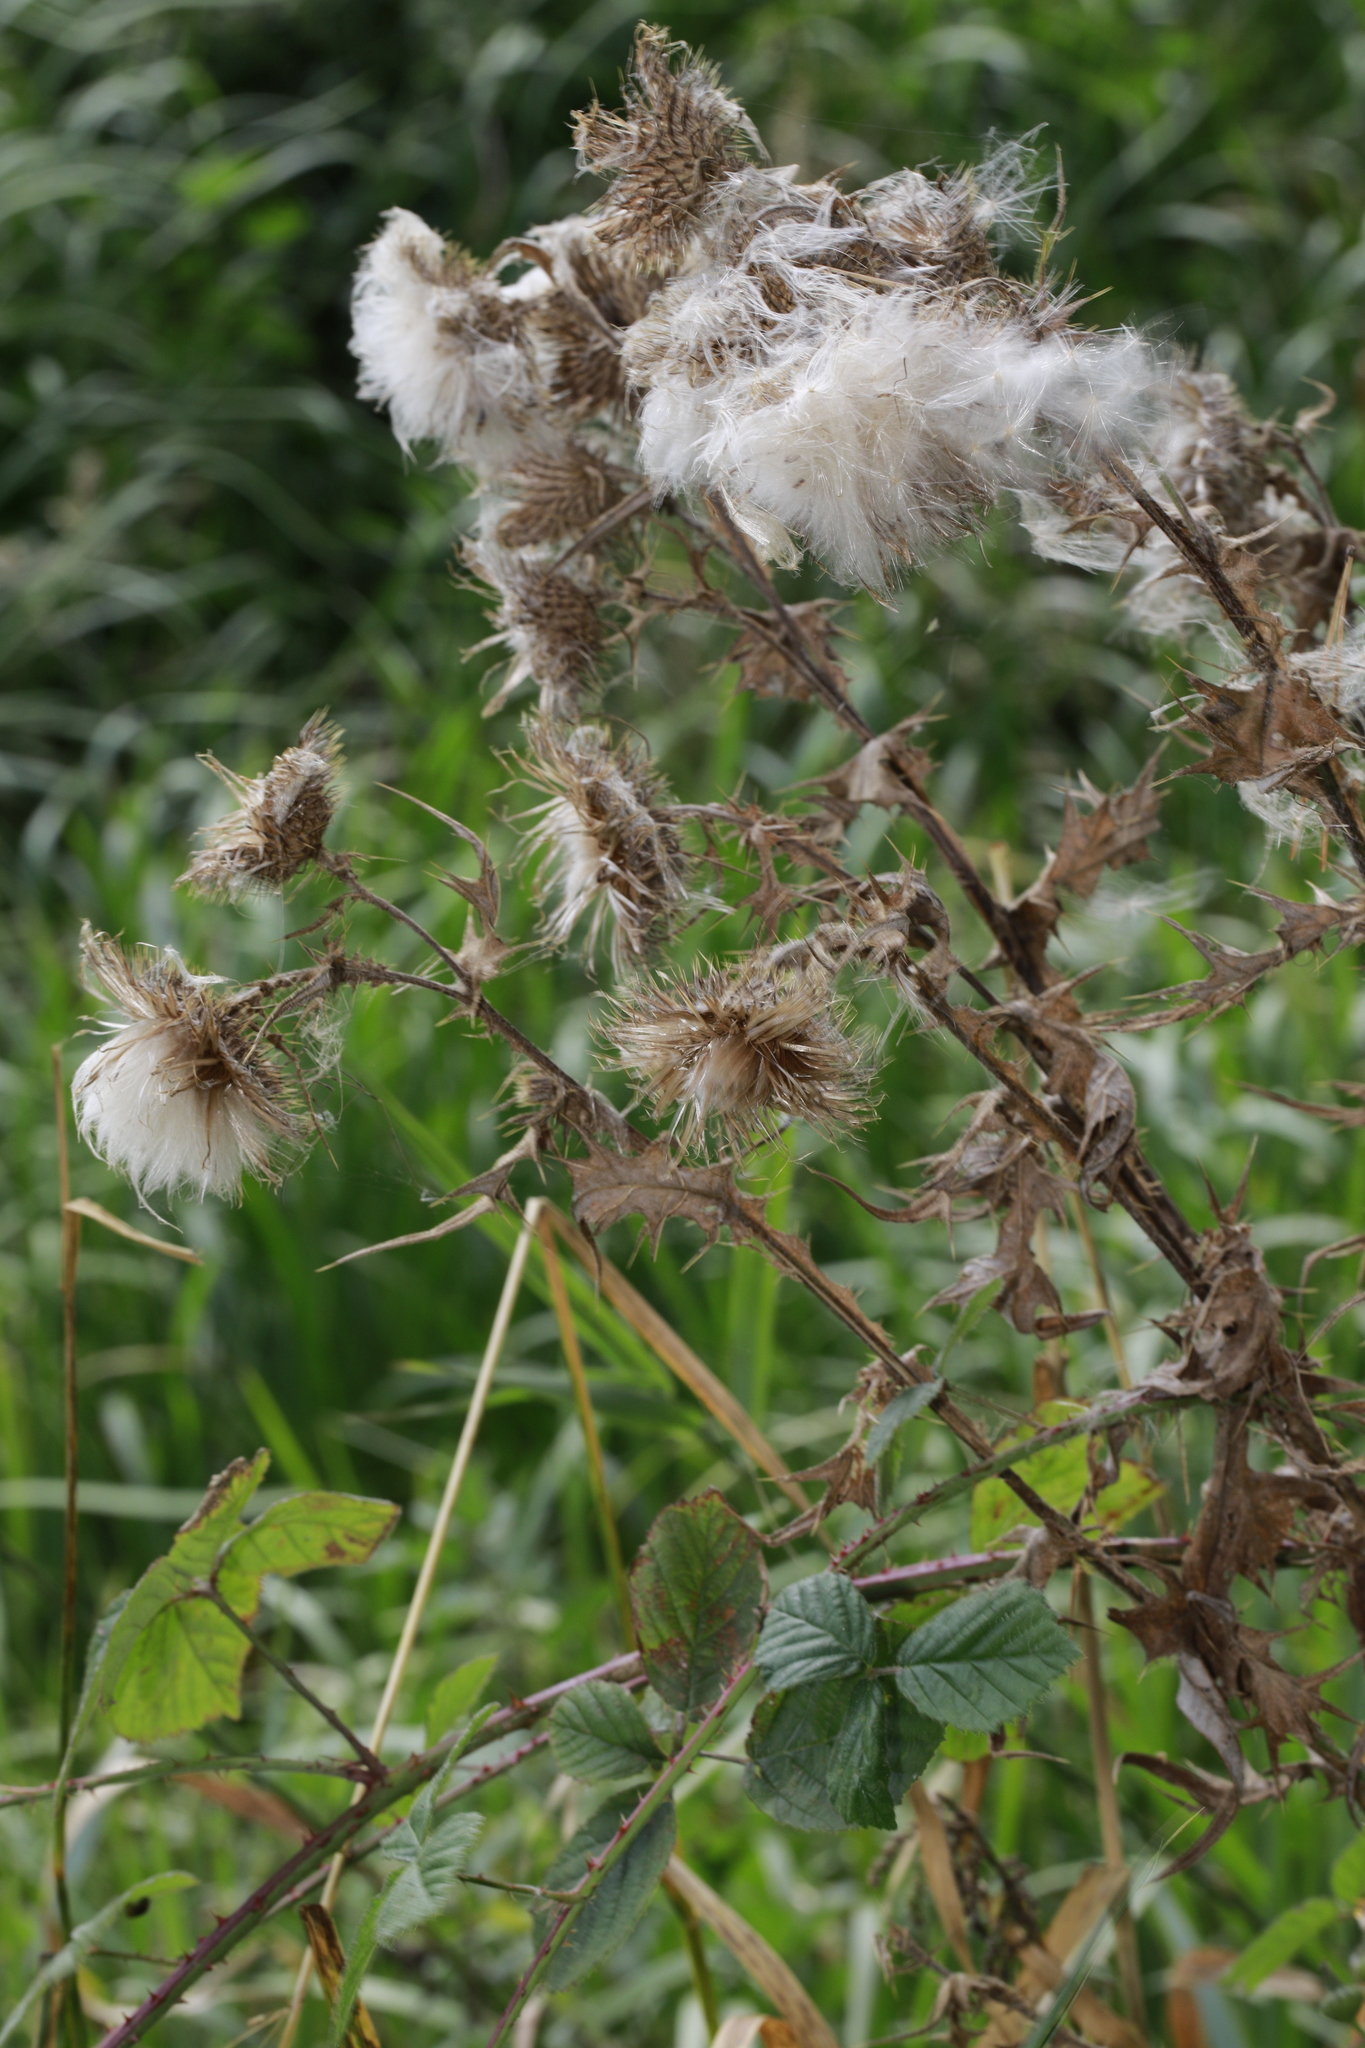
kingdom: Plantae
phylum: Tracheophyta
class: Magnoliopsida
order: Asterales
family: Asteraceae
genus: Cirsium
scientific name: Cirsium vulgare
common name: Bull thistle
